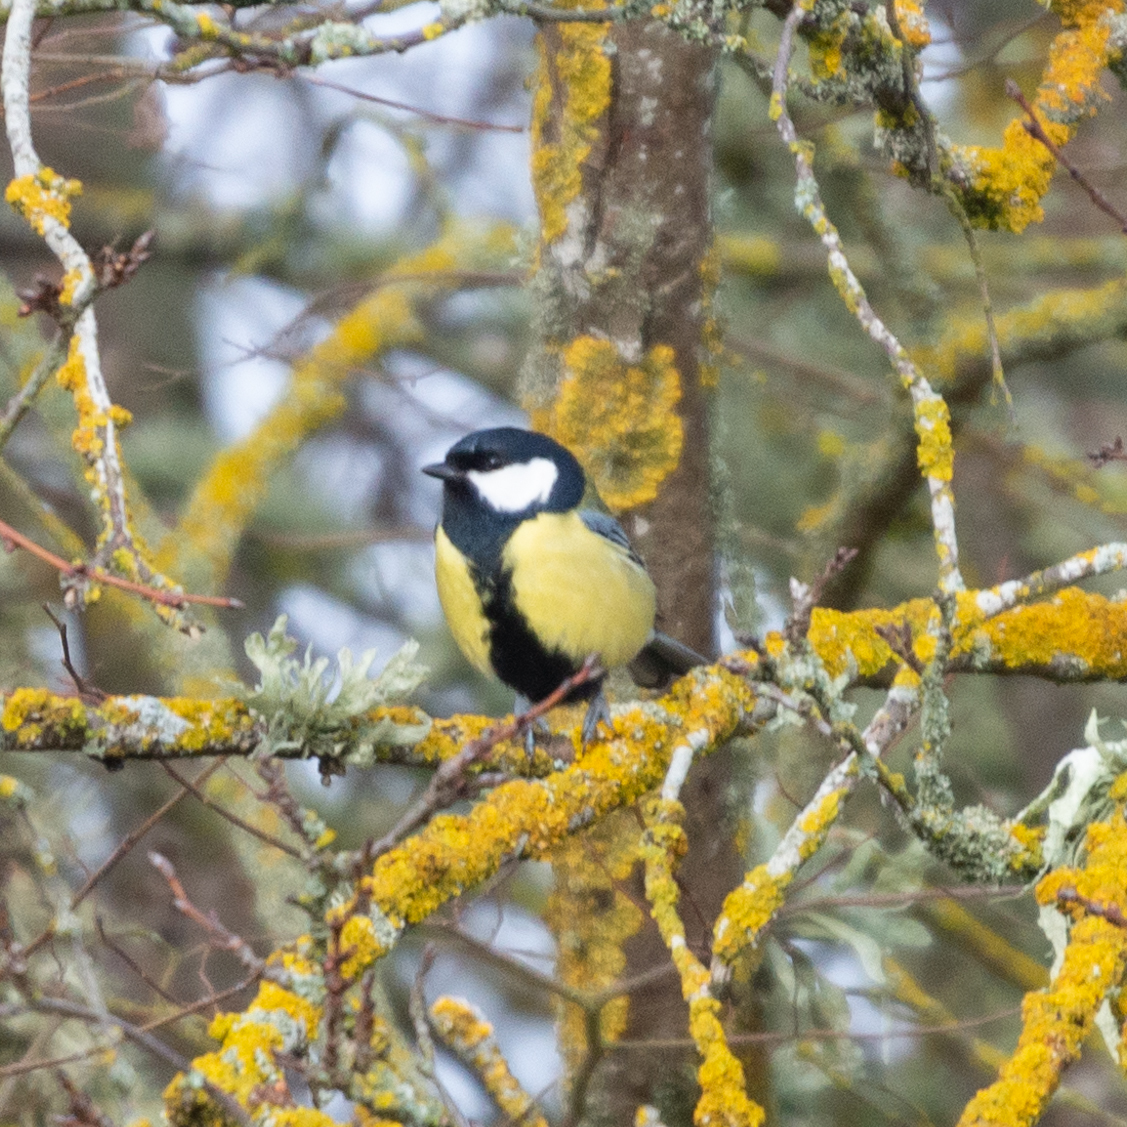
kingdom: Animalia
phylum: Chordata
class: Aves
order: Passeriformes
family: Paridae
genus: Parus
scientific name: Parus major
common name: Great tit
